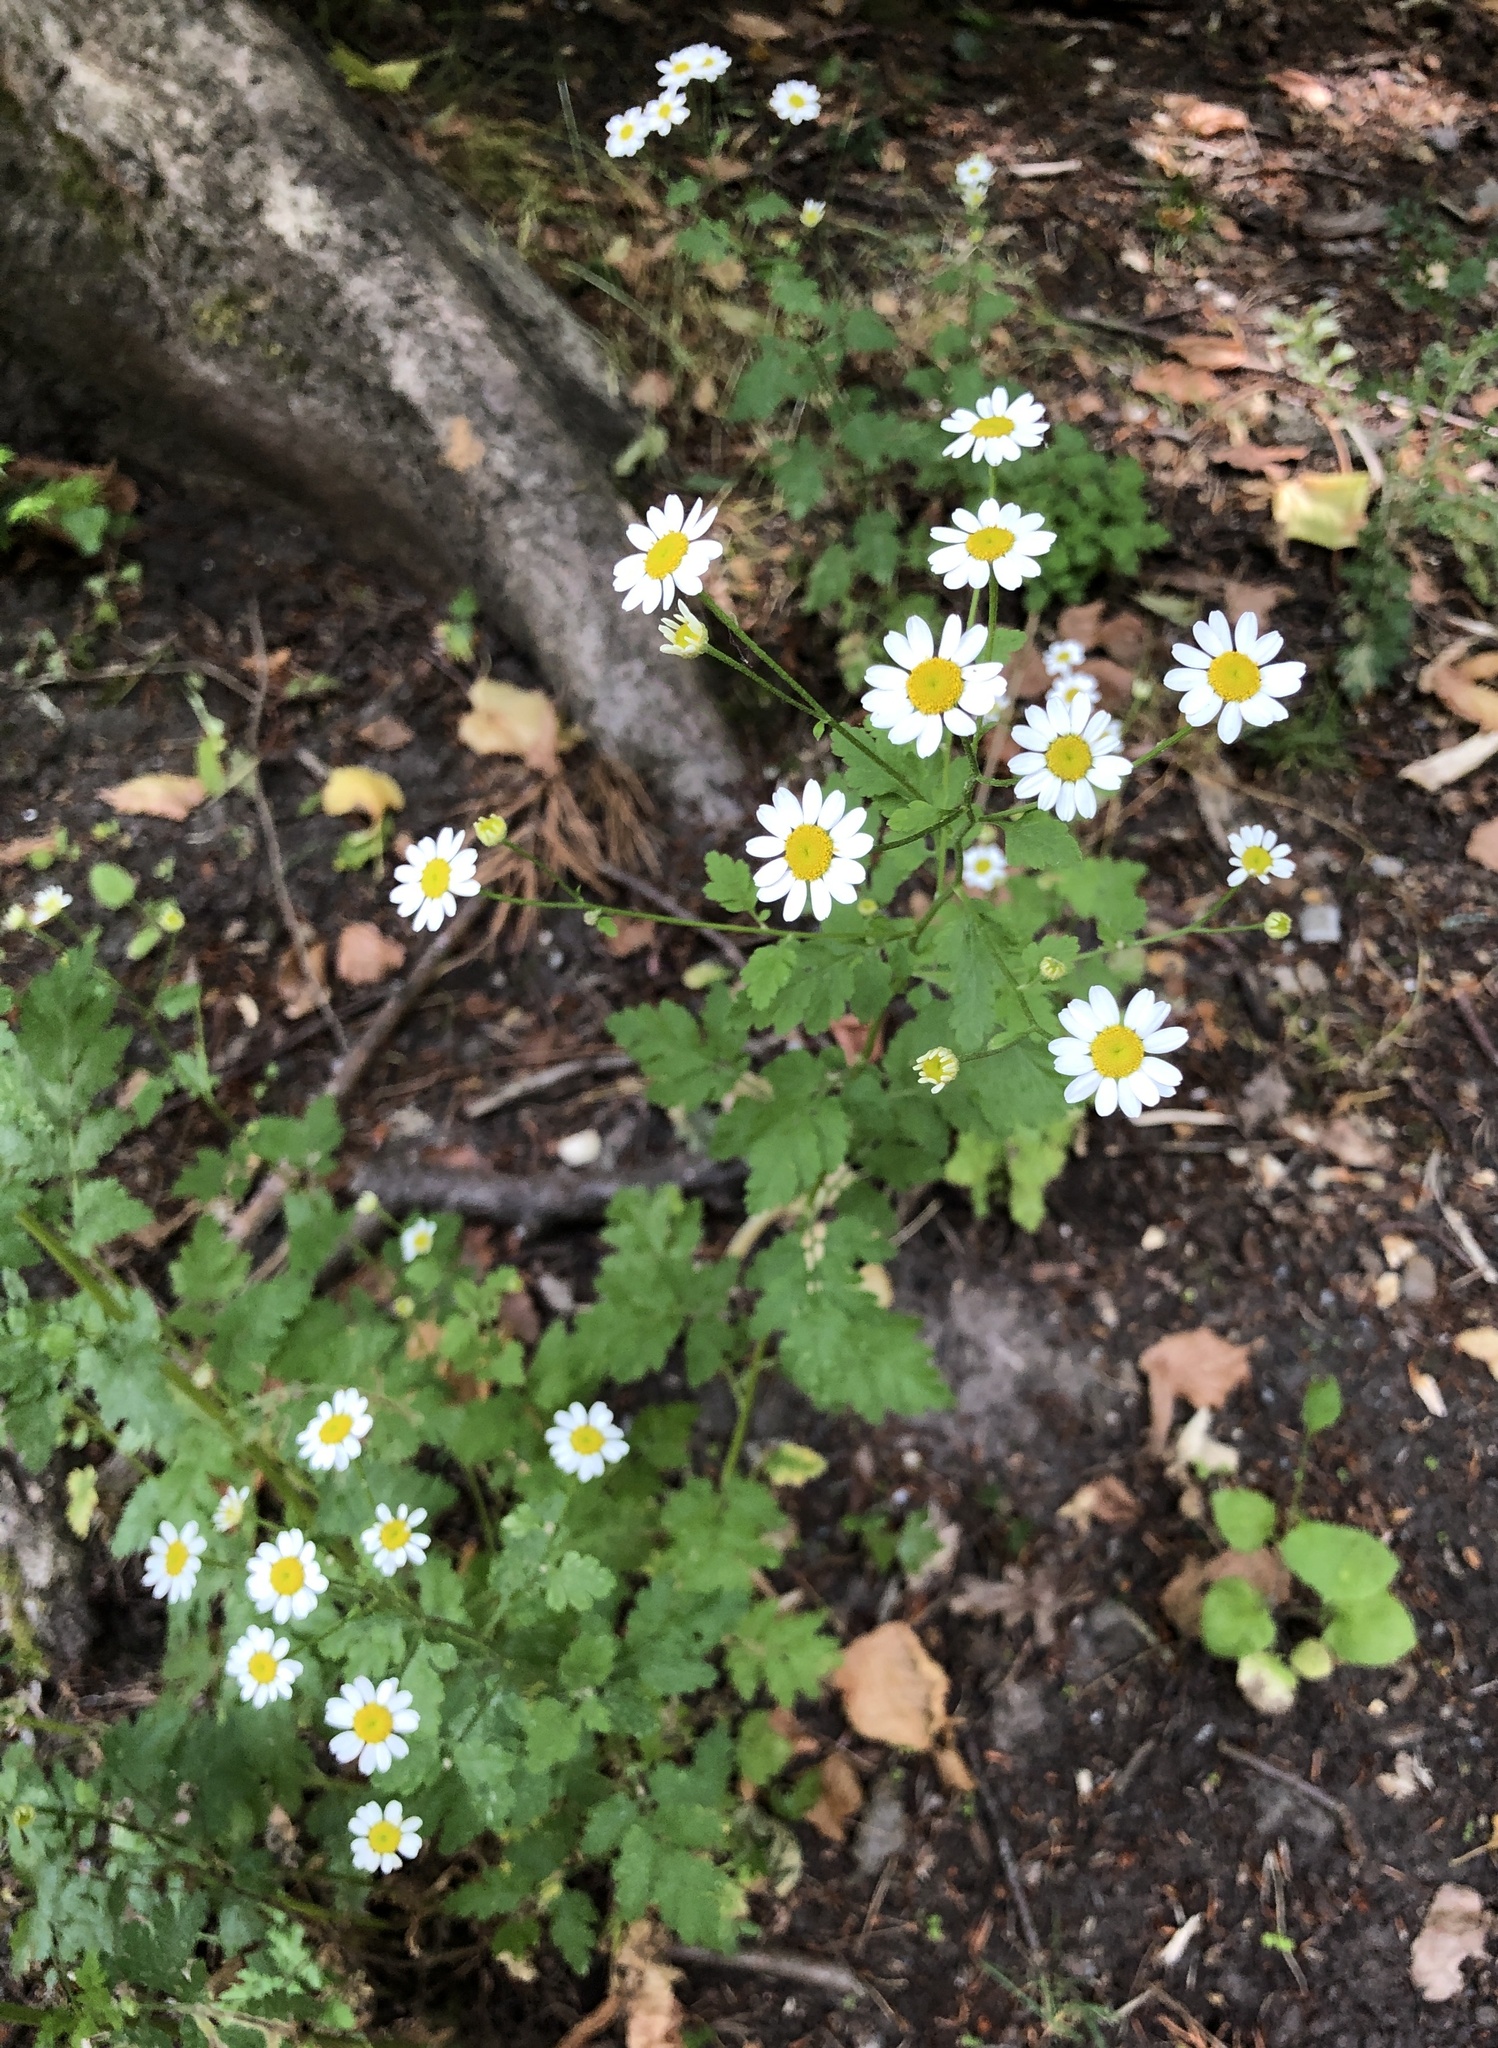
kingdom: Plantae
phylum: Tracheophyta
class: Magnoliopsida
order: Asterales
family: Asteraceae
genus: Tanacetum
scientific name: Tanacetum parthenium
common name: Feverfew
